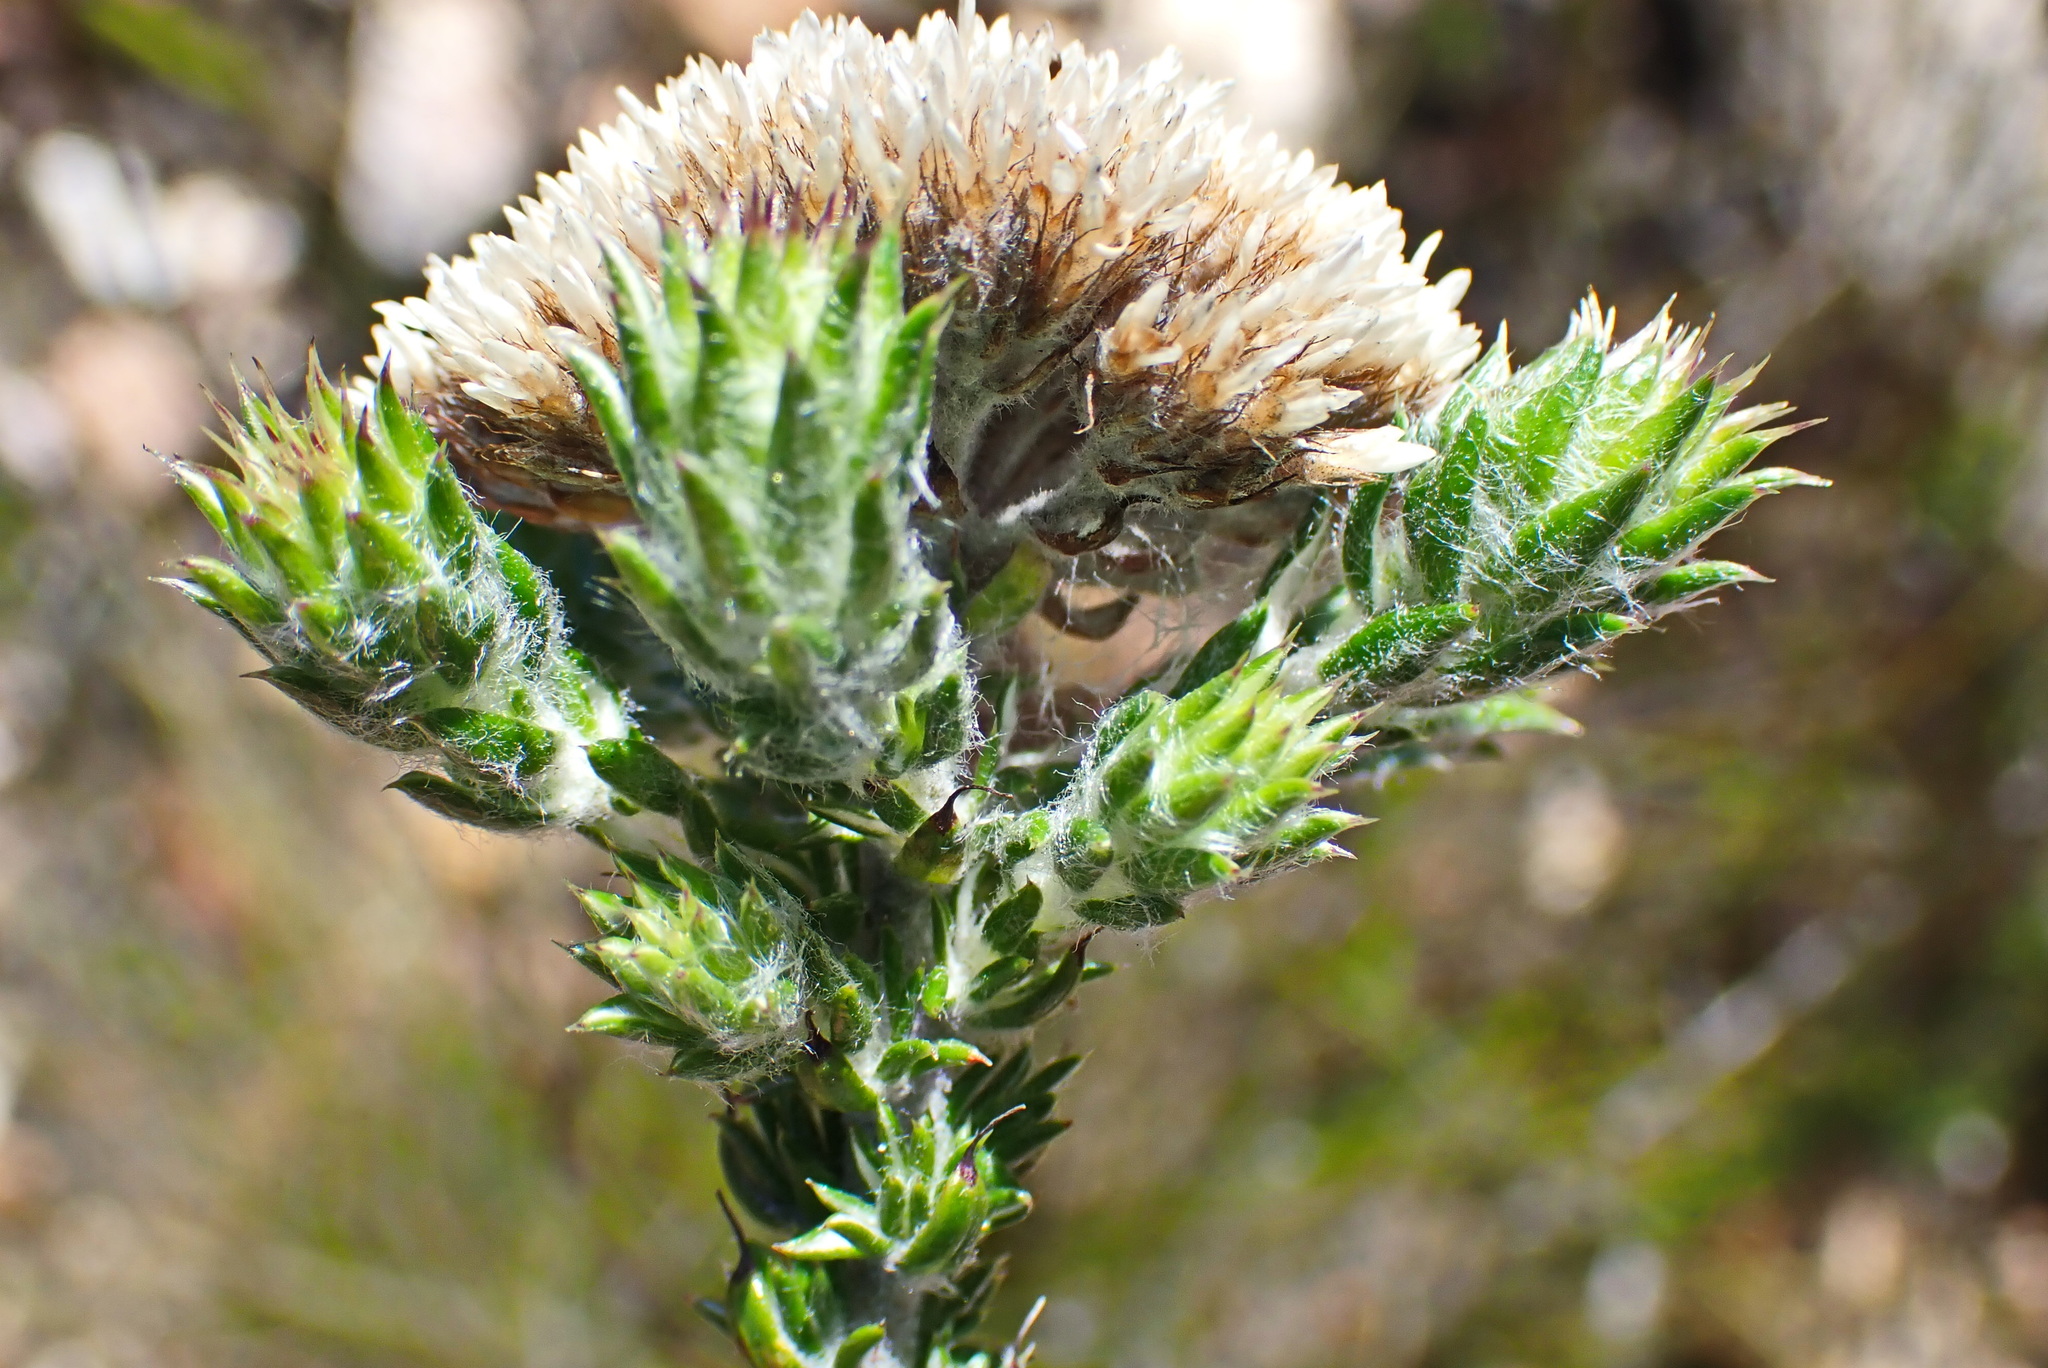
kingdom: Plantae
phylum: Tracheophyta
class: Magnoliopsida
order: Asterales
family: Asteraceae
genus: Metalasia
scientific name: Metalasia pungens
